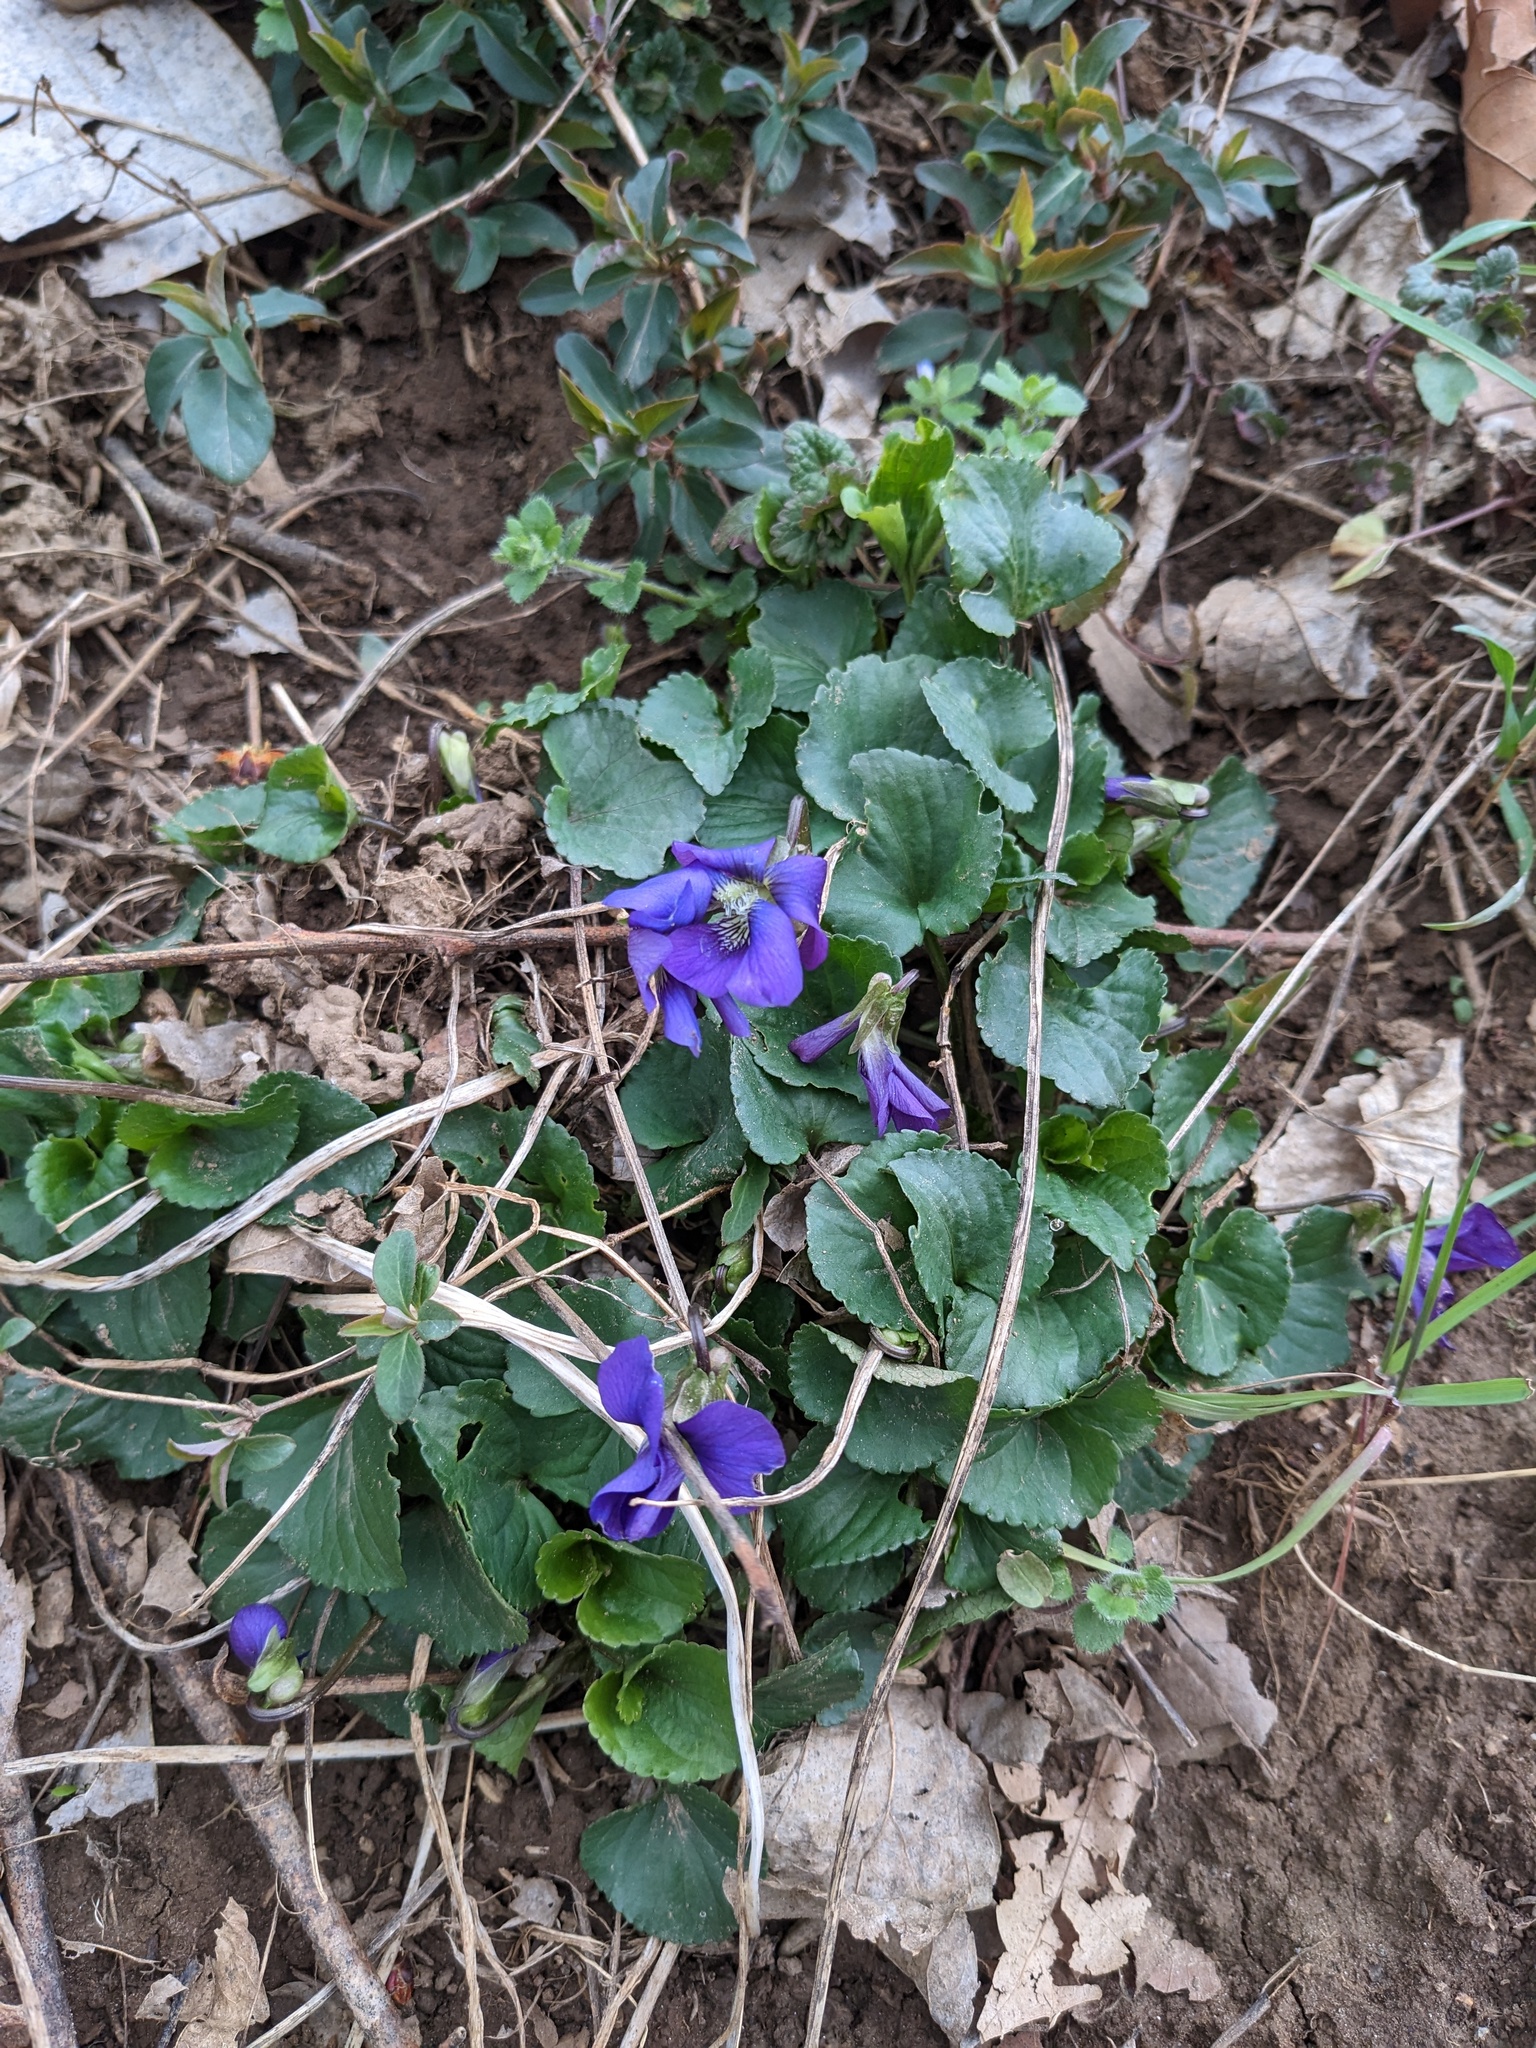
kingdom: Plantae
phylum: Tracheophyta
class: Magnoliopsida
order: Malpighiales
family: Violaceae
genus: Viola
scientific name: Viola sororia
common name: Dooryard violet
